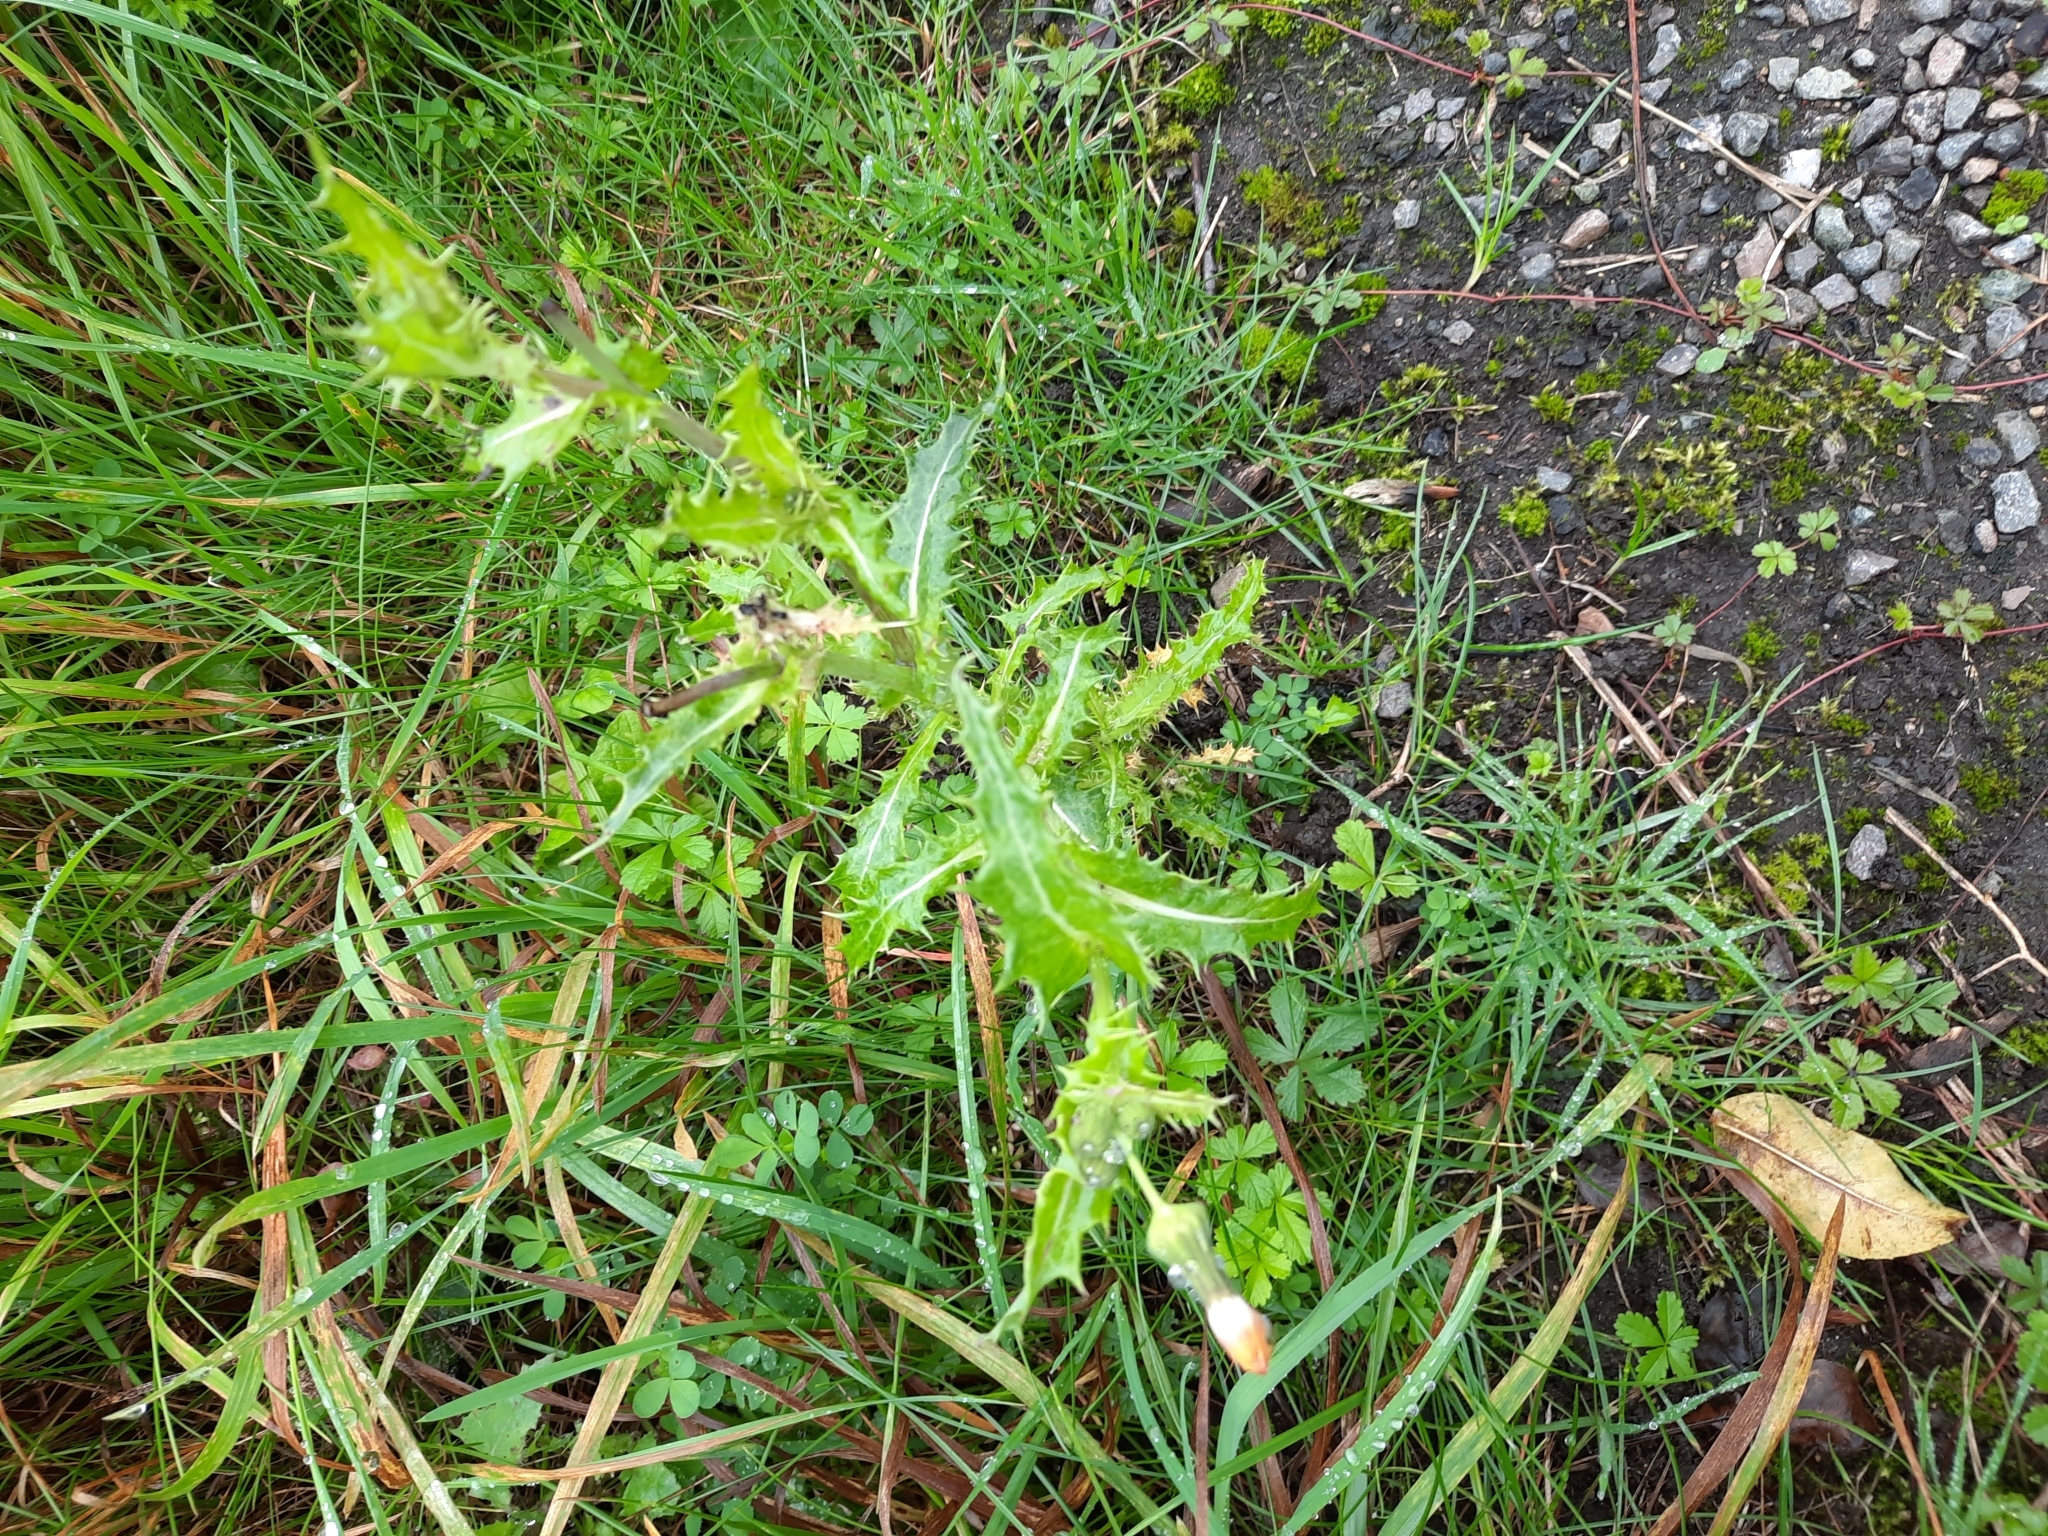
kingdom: Plantae
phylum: Tracheophyta
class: Magnoliopsida
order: Asterales
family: Asteraceae
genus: Sonchus
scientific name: Sonchus asper
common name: Prickly sow-thistle
